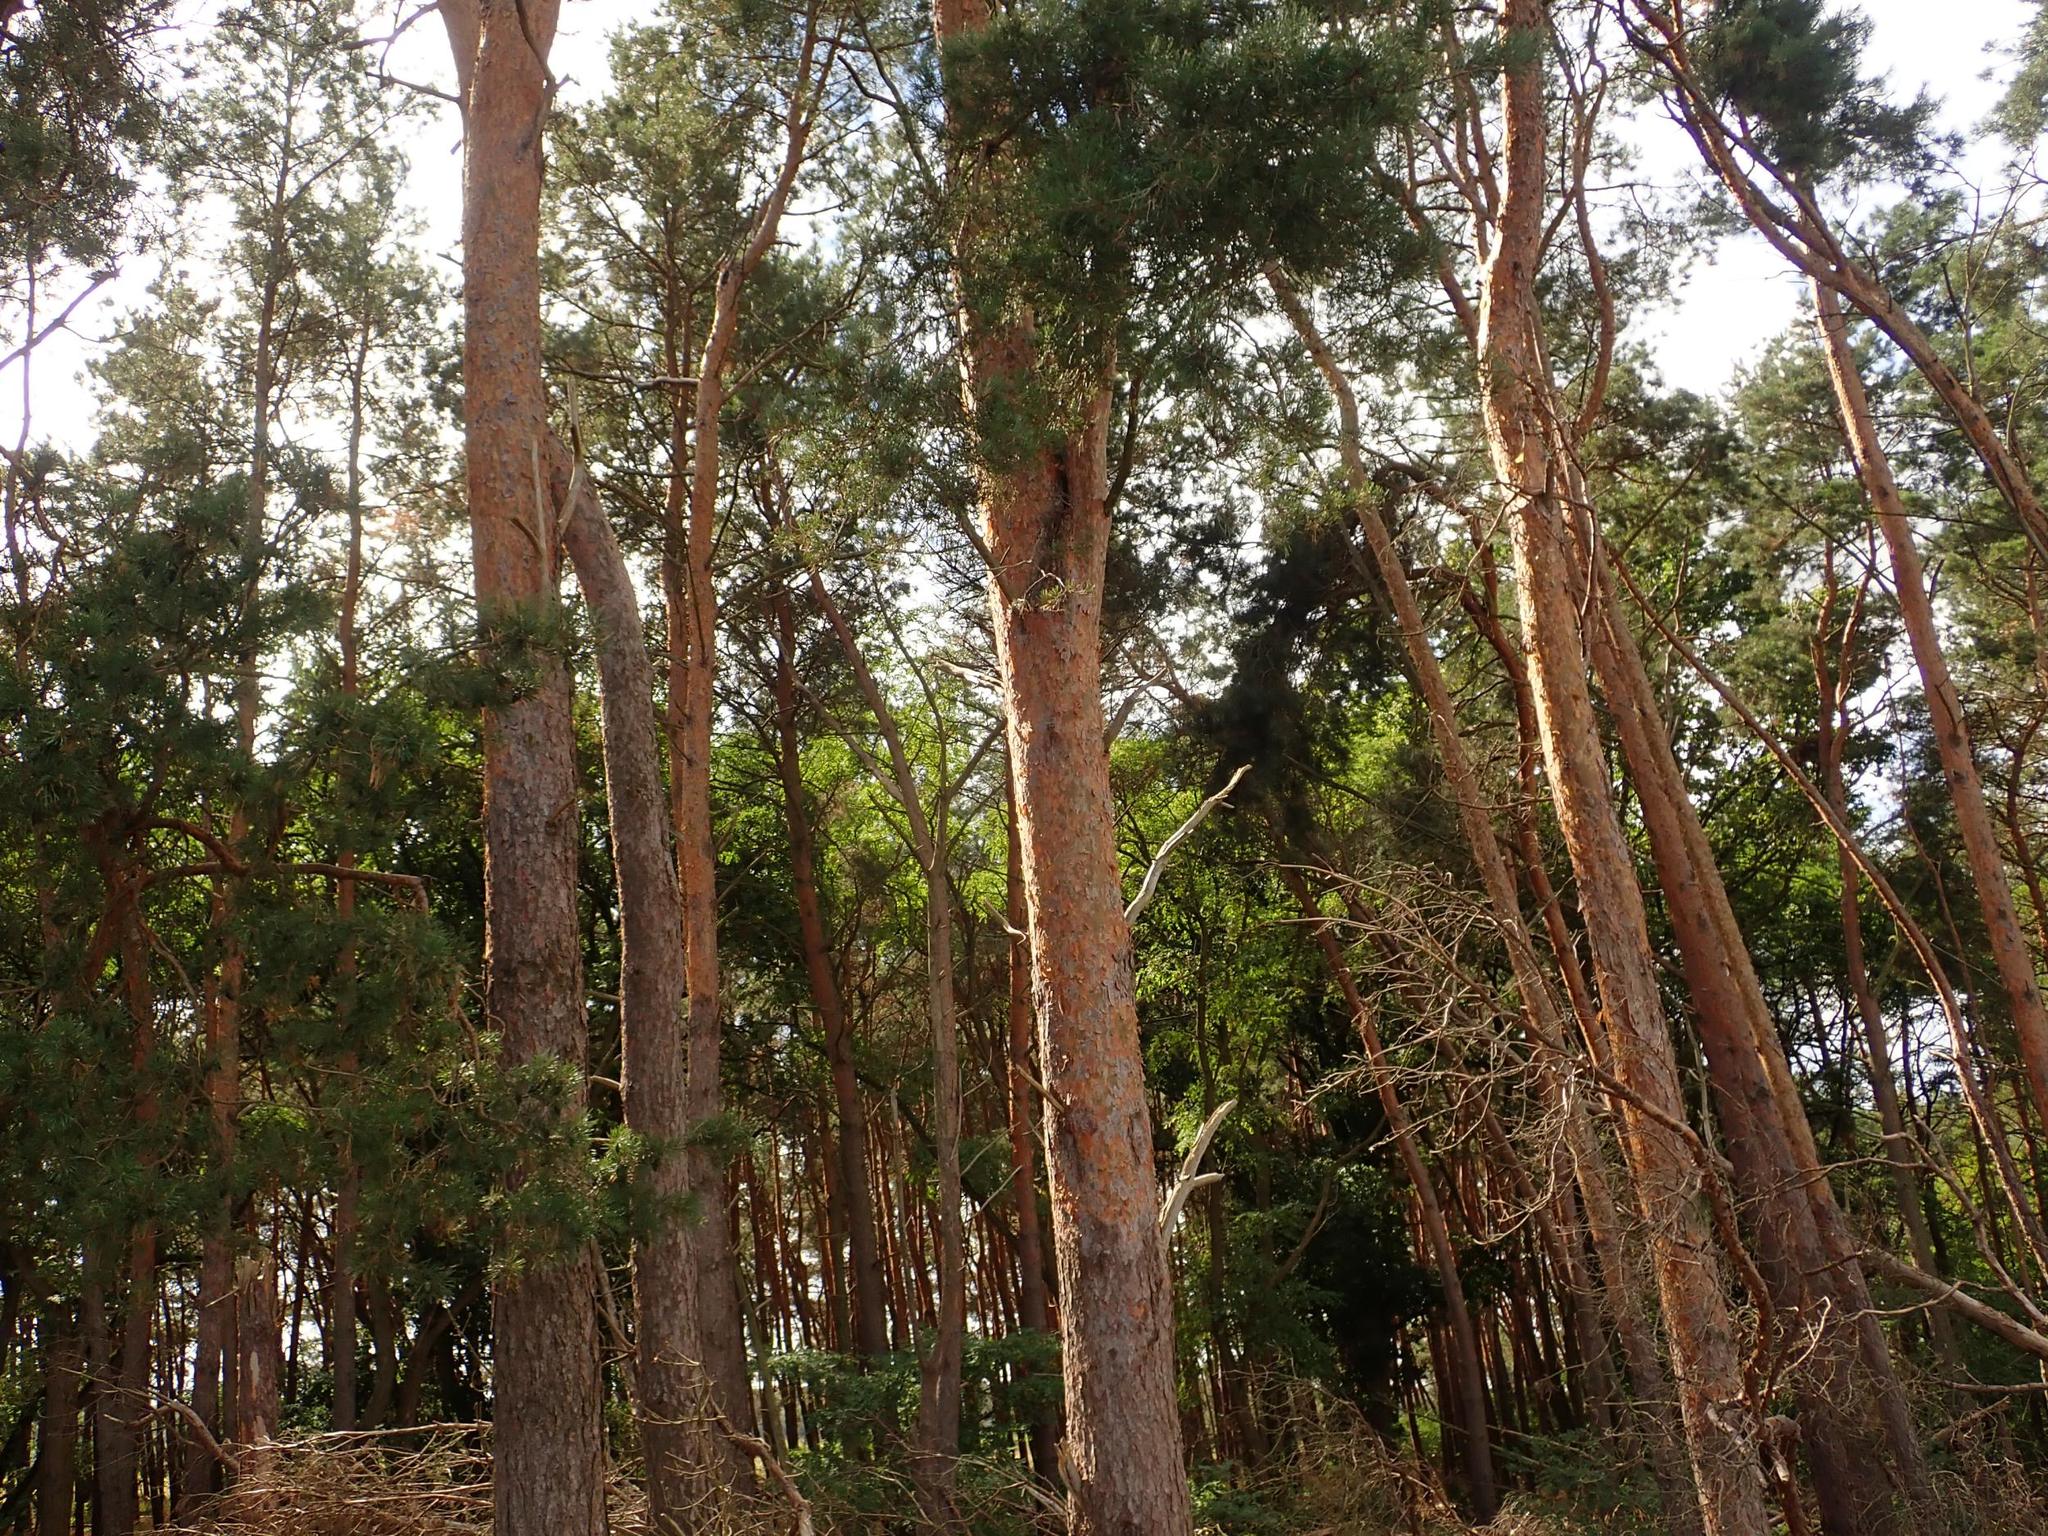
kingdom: Plantae
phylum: Tracheophyta
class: Pinopsida
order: Pinales
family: Pinaceae
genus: Pinus
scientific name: Pinus sylvestris
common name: Scots pine
